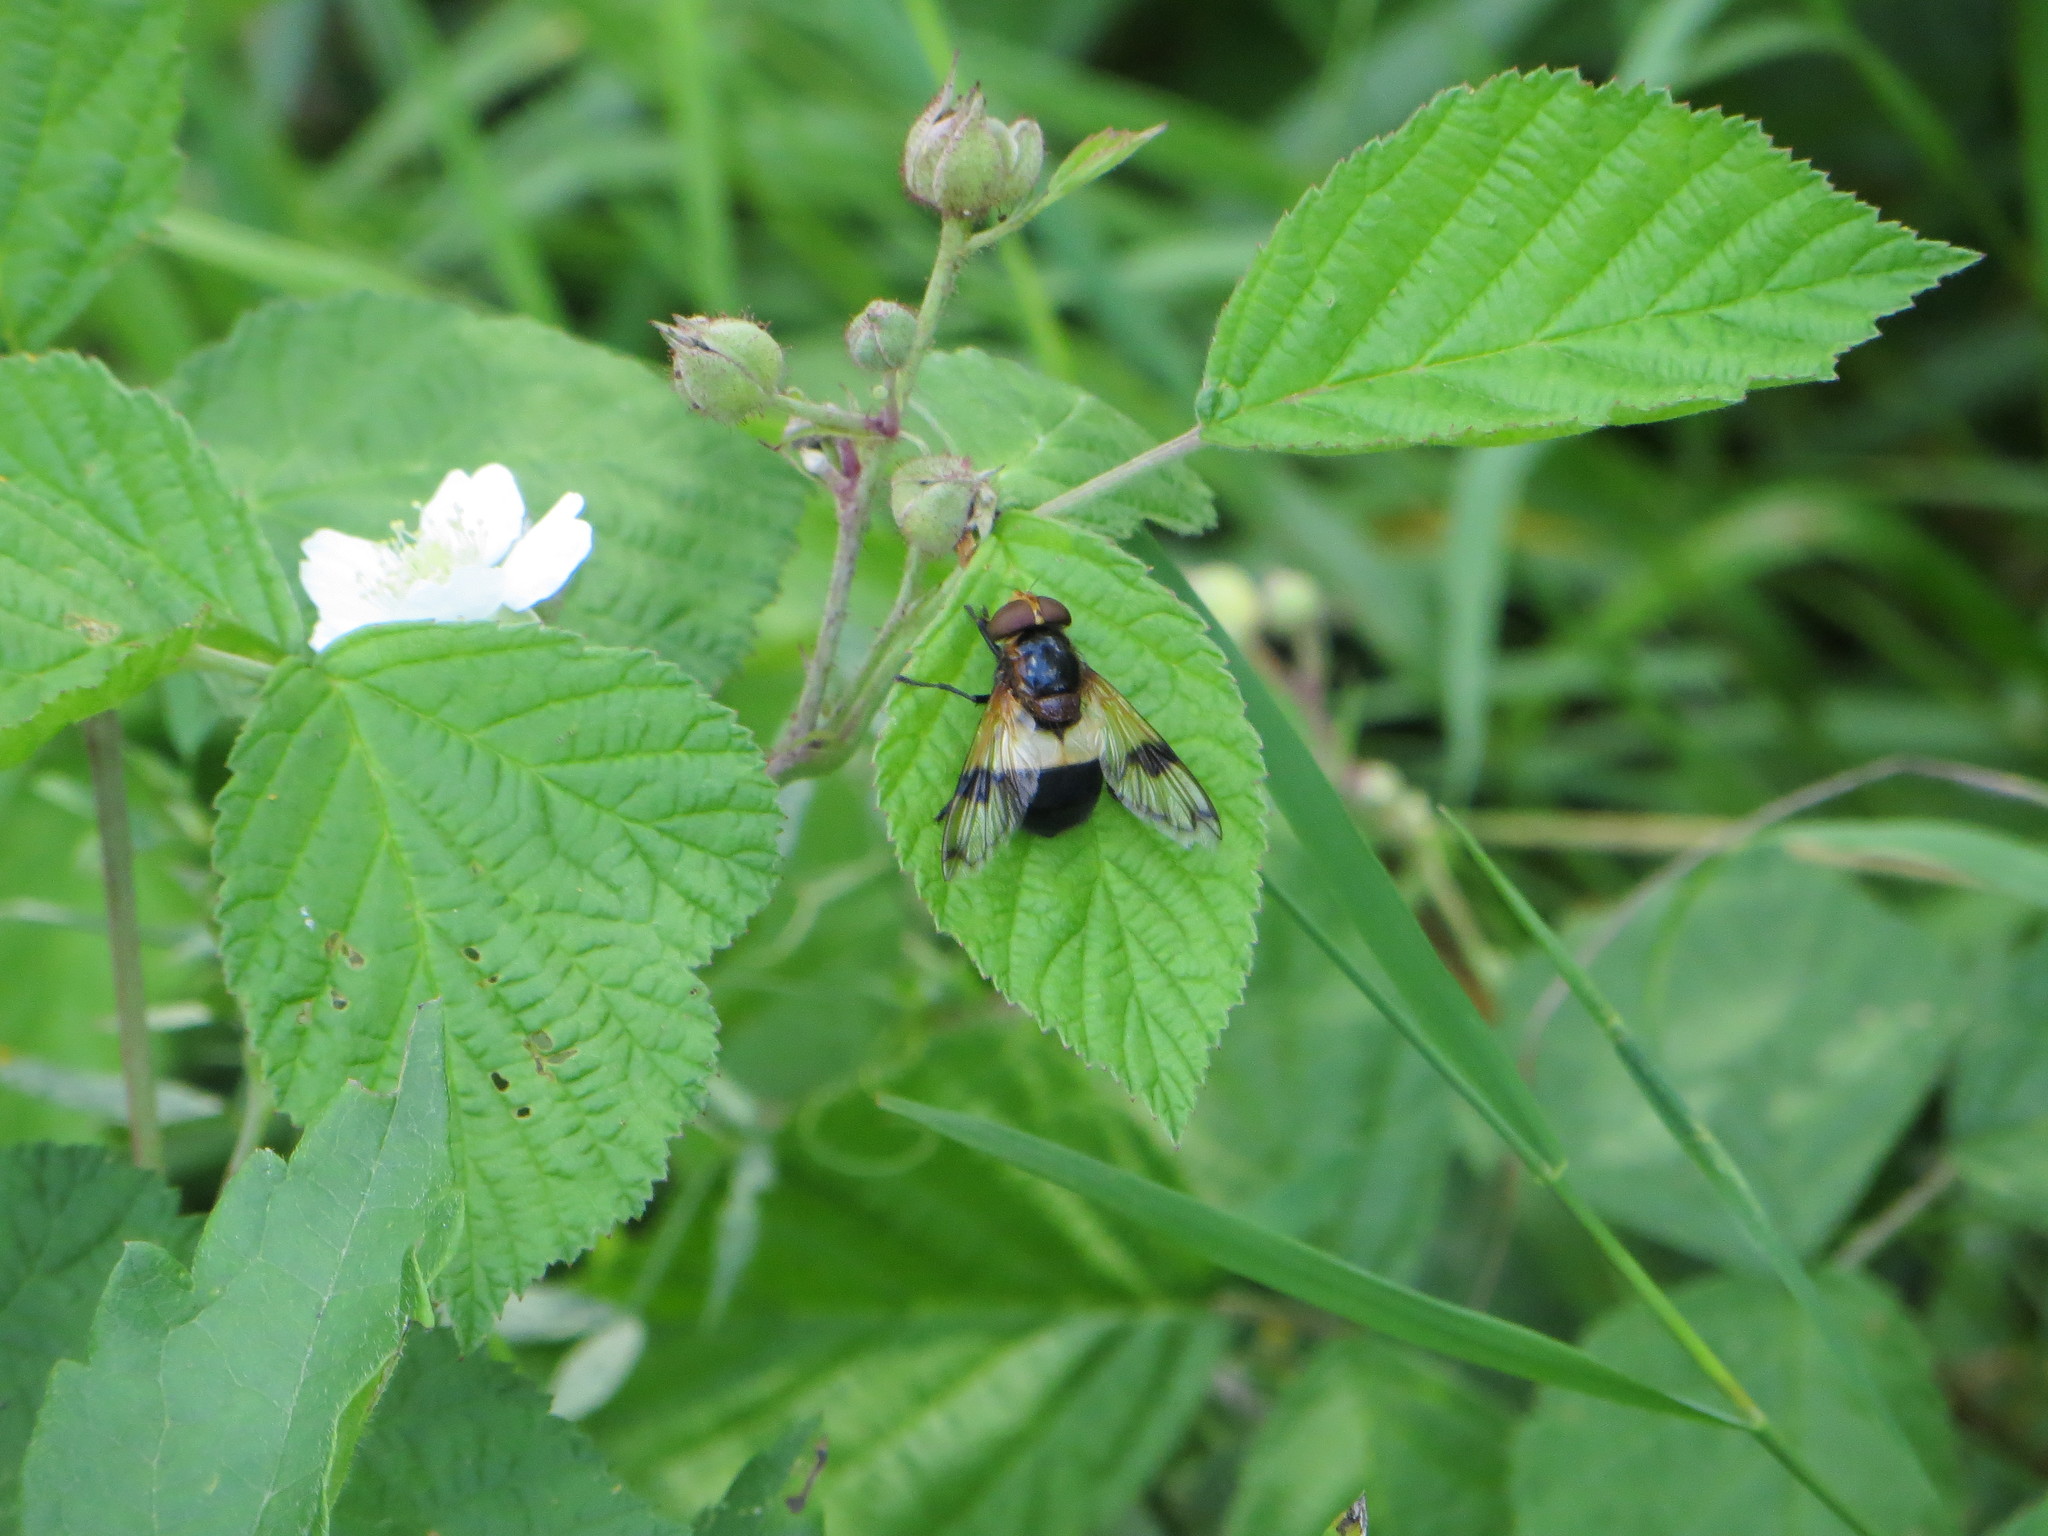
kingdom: Animalia
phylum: Arthropoda
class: Insecta
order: Diptera
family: Syrphidae
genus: Volucella
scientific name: Volucella pellucens
